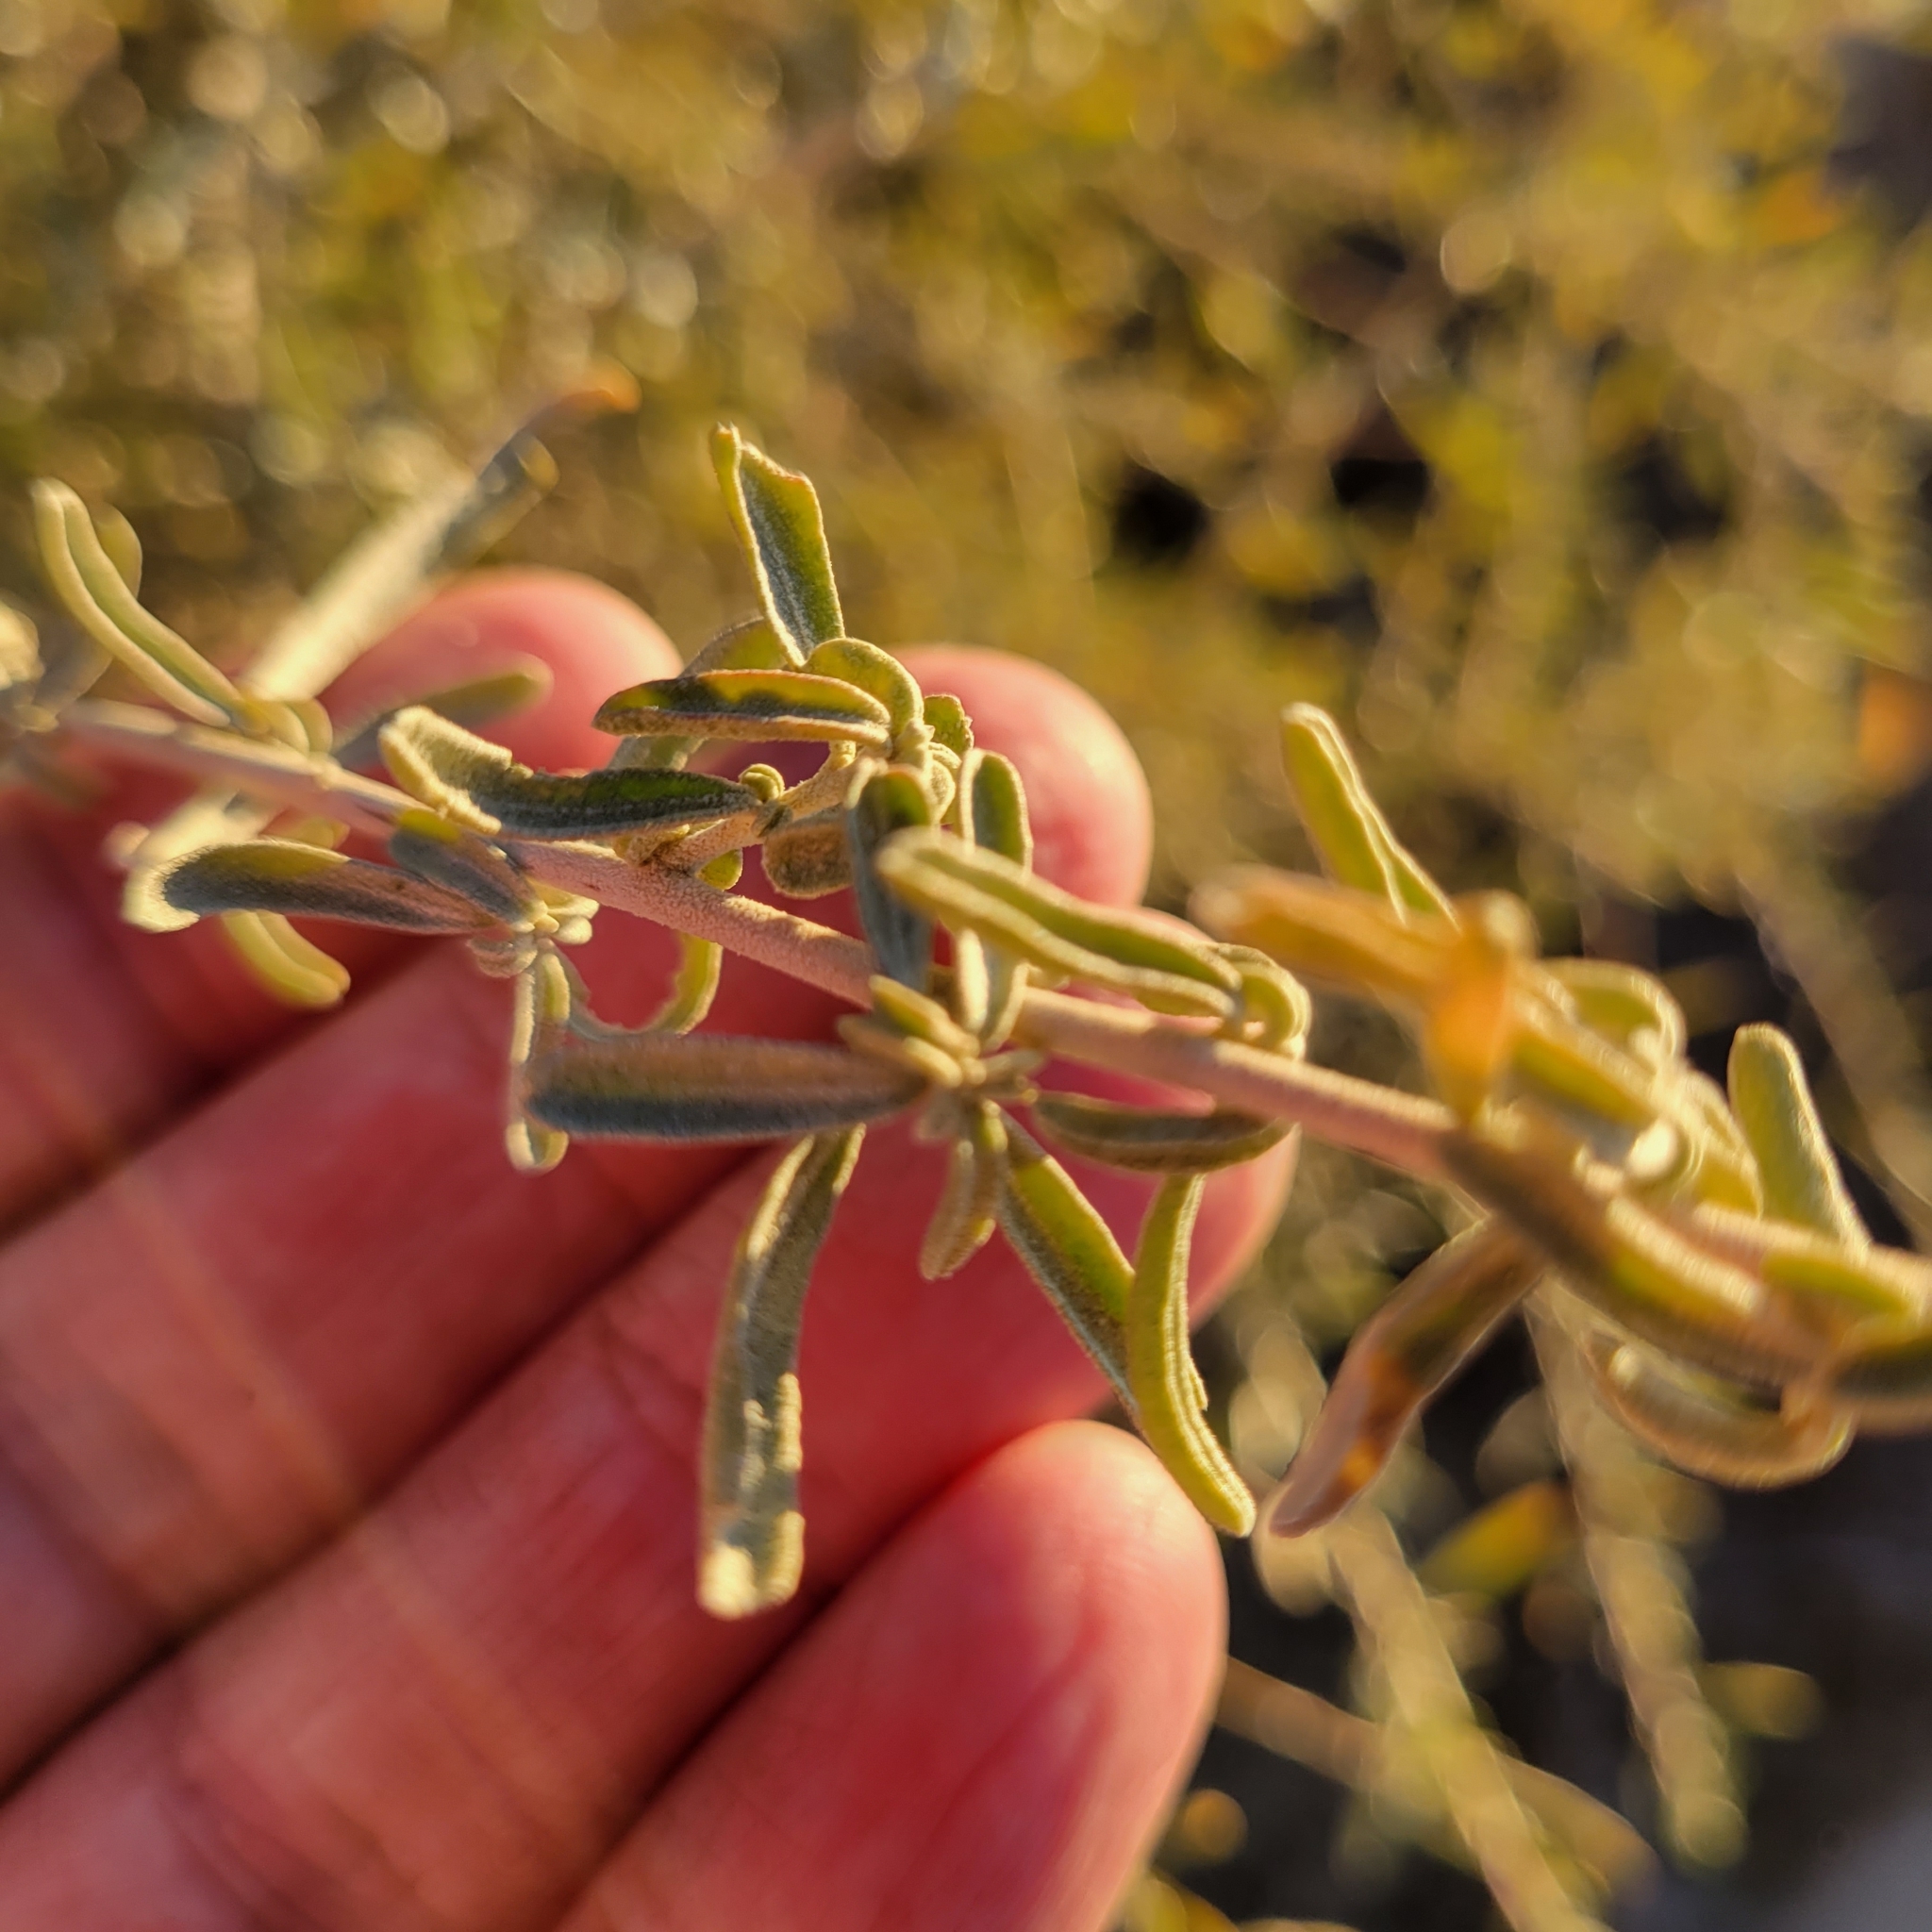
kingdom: Plantae
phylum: Tracheophyta
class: Magnoliopsida
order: Caryophyllales
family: Amaranthaceae
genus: Atriplex
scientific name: Atriplex canescens
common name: Four-wing saltbush
